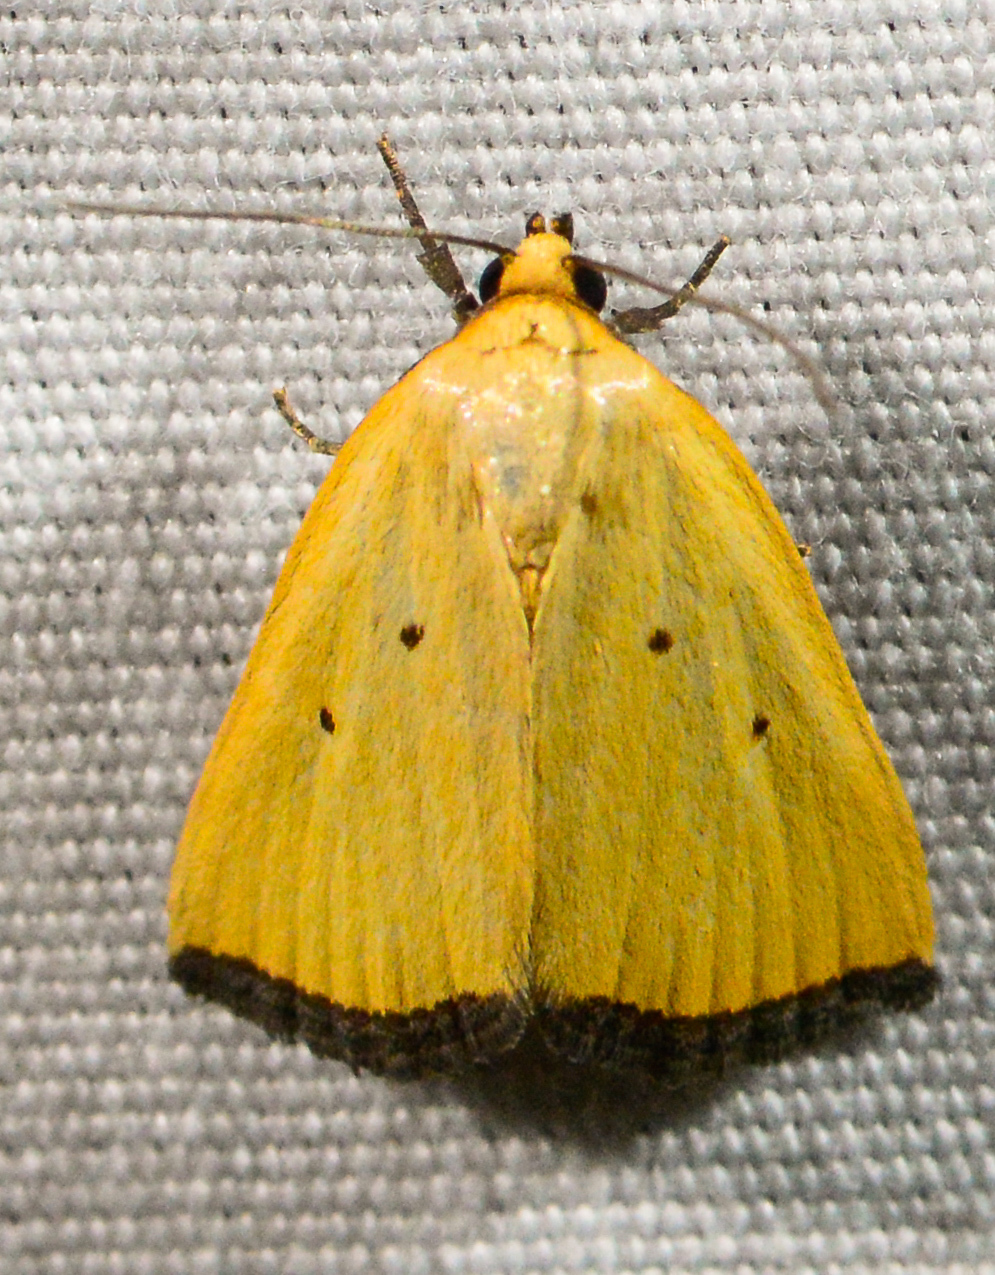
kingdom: Animalia
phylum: Arthropoda
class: Insecta
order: Lepidoptera
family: Noctuidae
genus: Marimatha
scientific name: Marimatha nigrofimbria
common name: Black-bordered lemon moth
